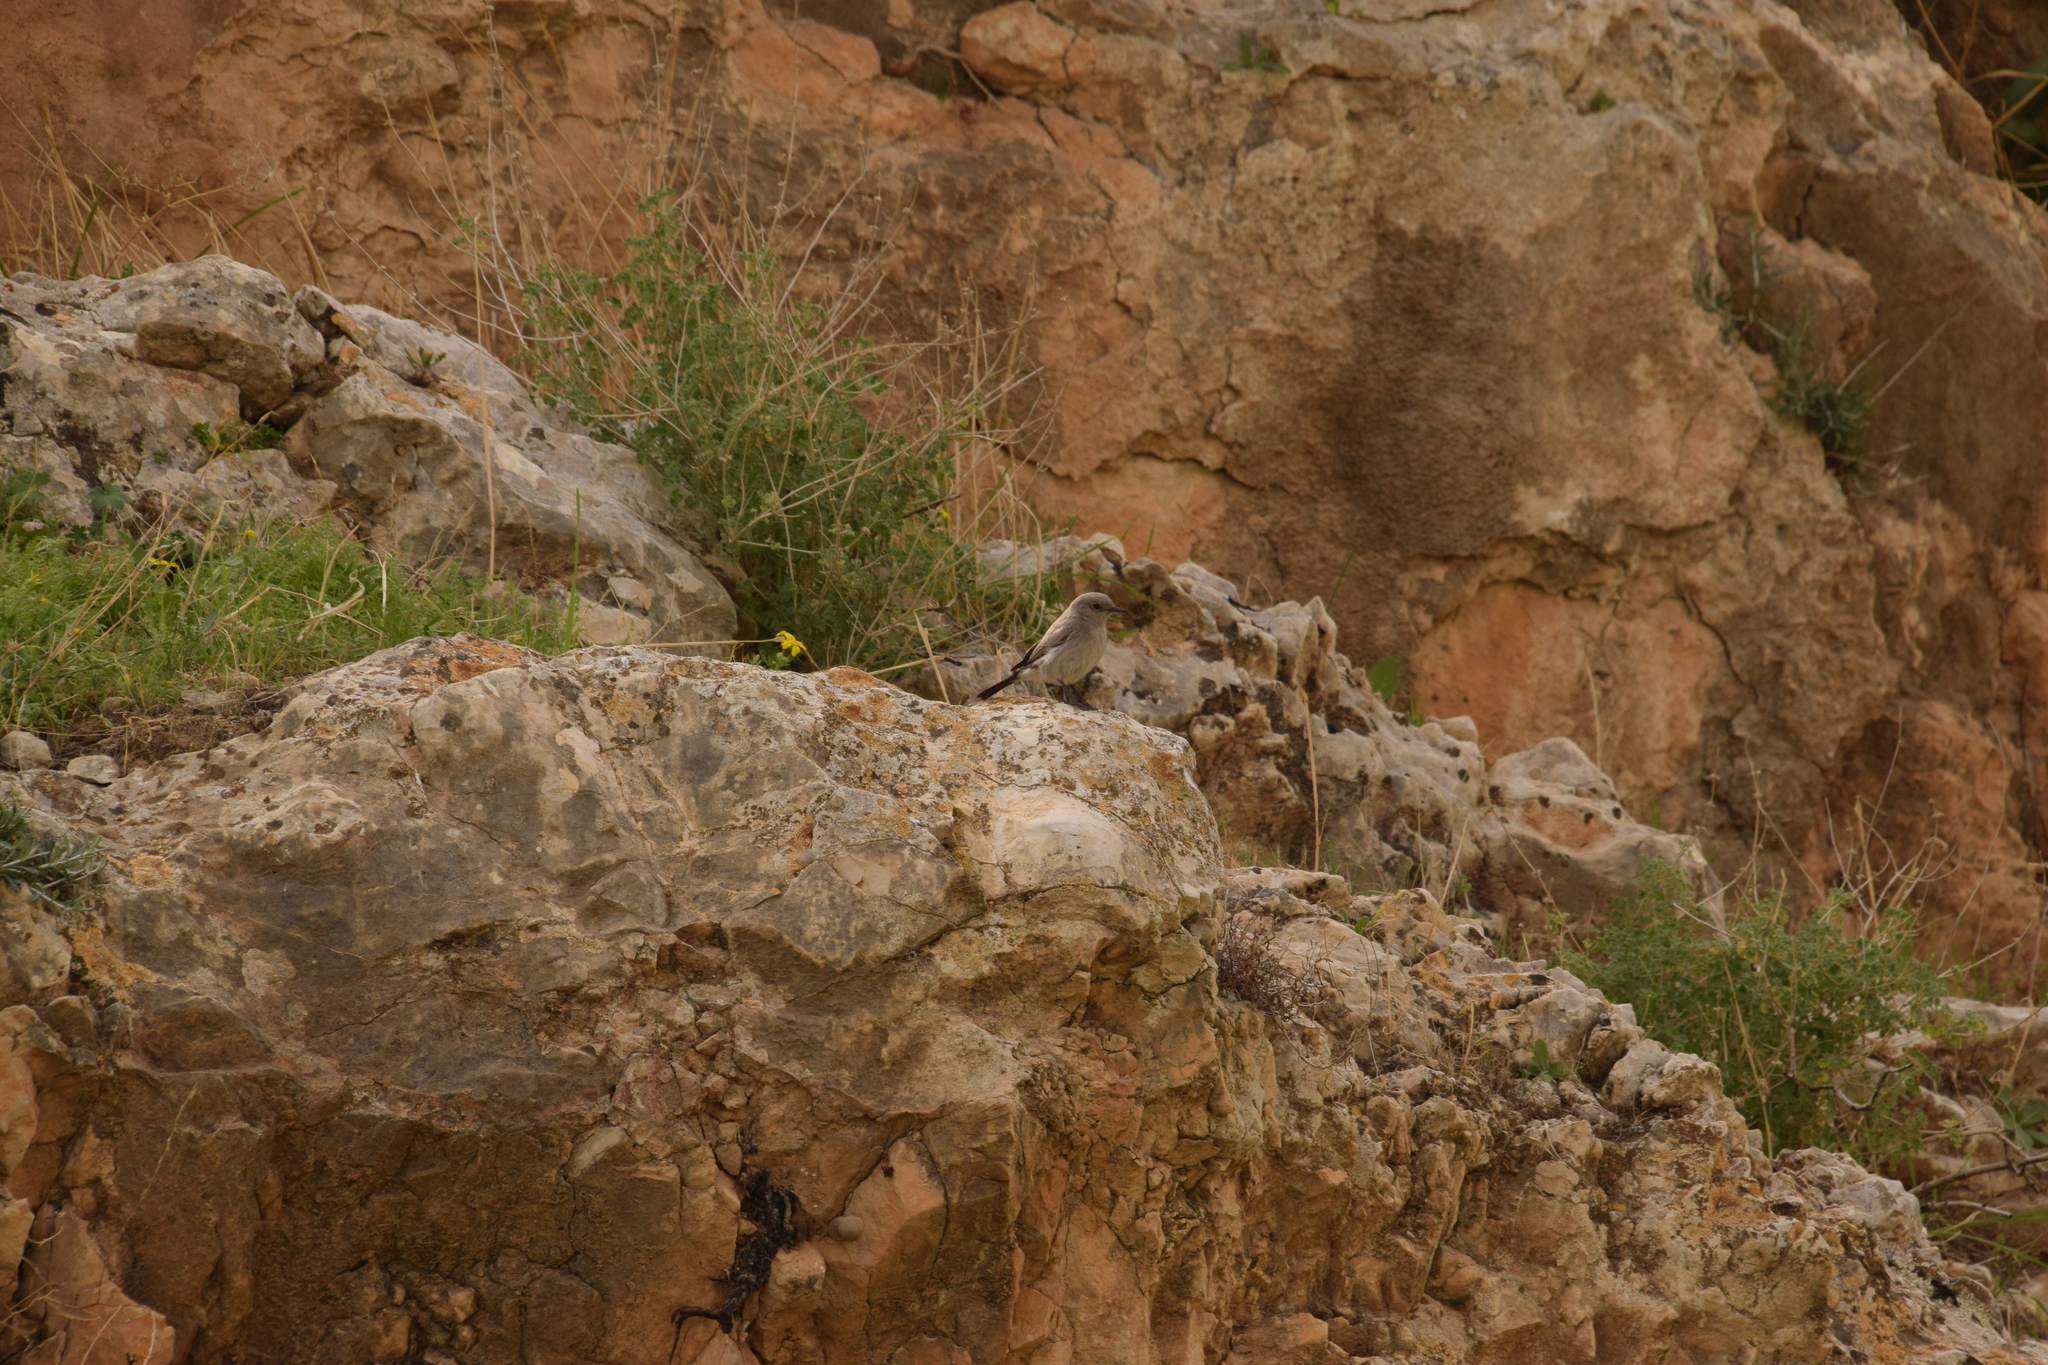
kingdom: Animalia
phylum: Chordata
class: Aves
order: Passeriformes
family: Muscicapidae
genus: Oenanthe
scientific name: Oenanthe melanura
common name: Blackstart
